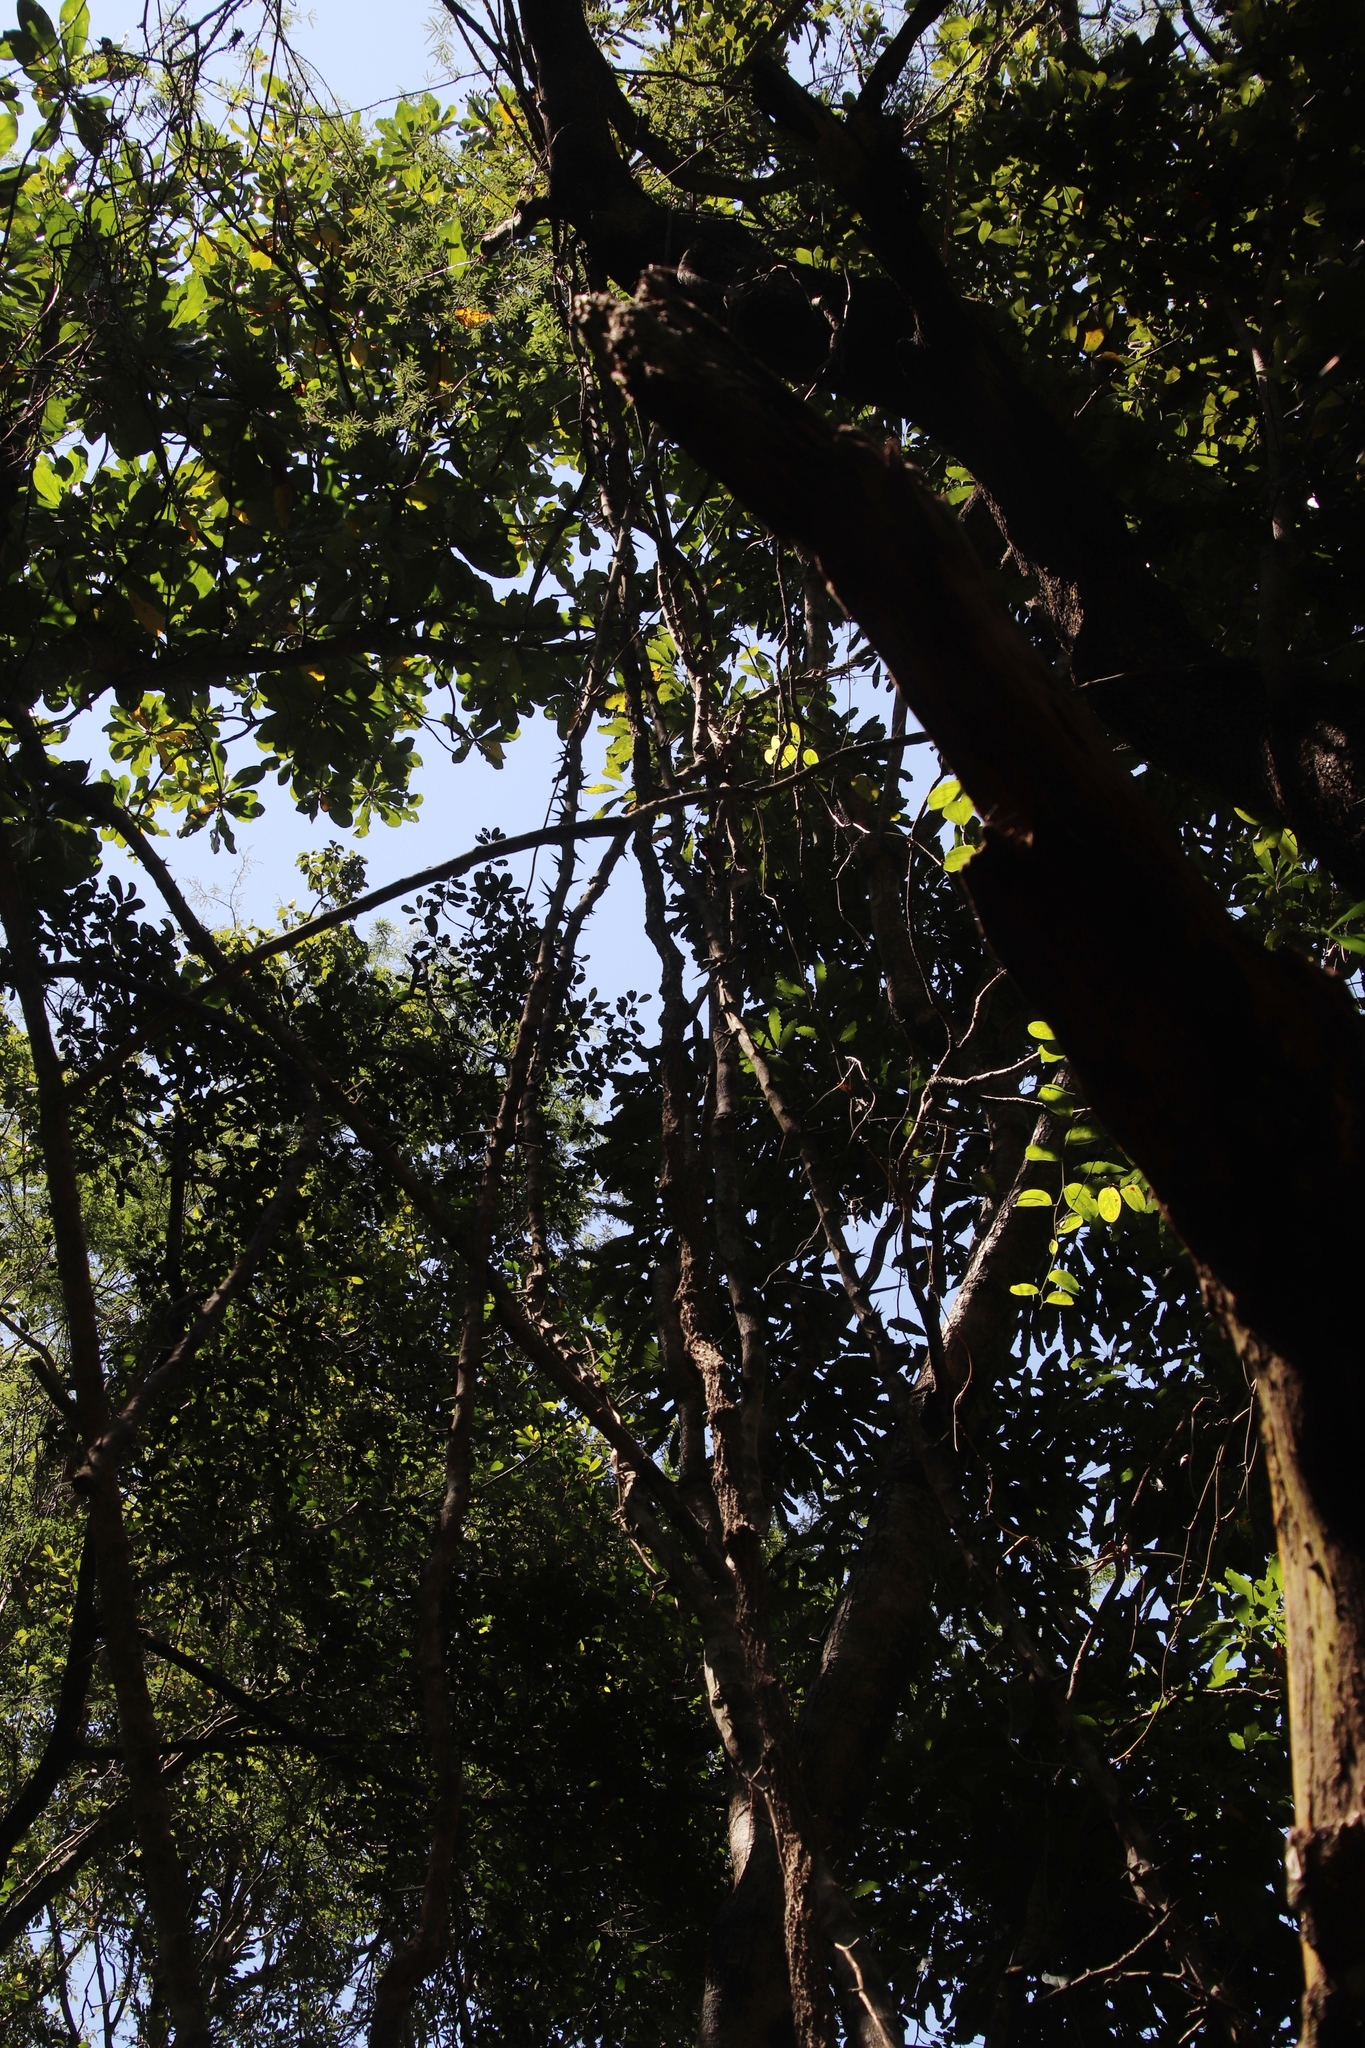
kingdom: Plantae
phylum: Tracheophyta
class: Magnoliopsida
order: Fabales
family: Fabaceae
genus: Dalbergia
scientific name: Dalbergia armata
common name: Hluhluwe climber
